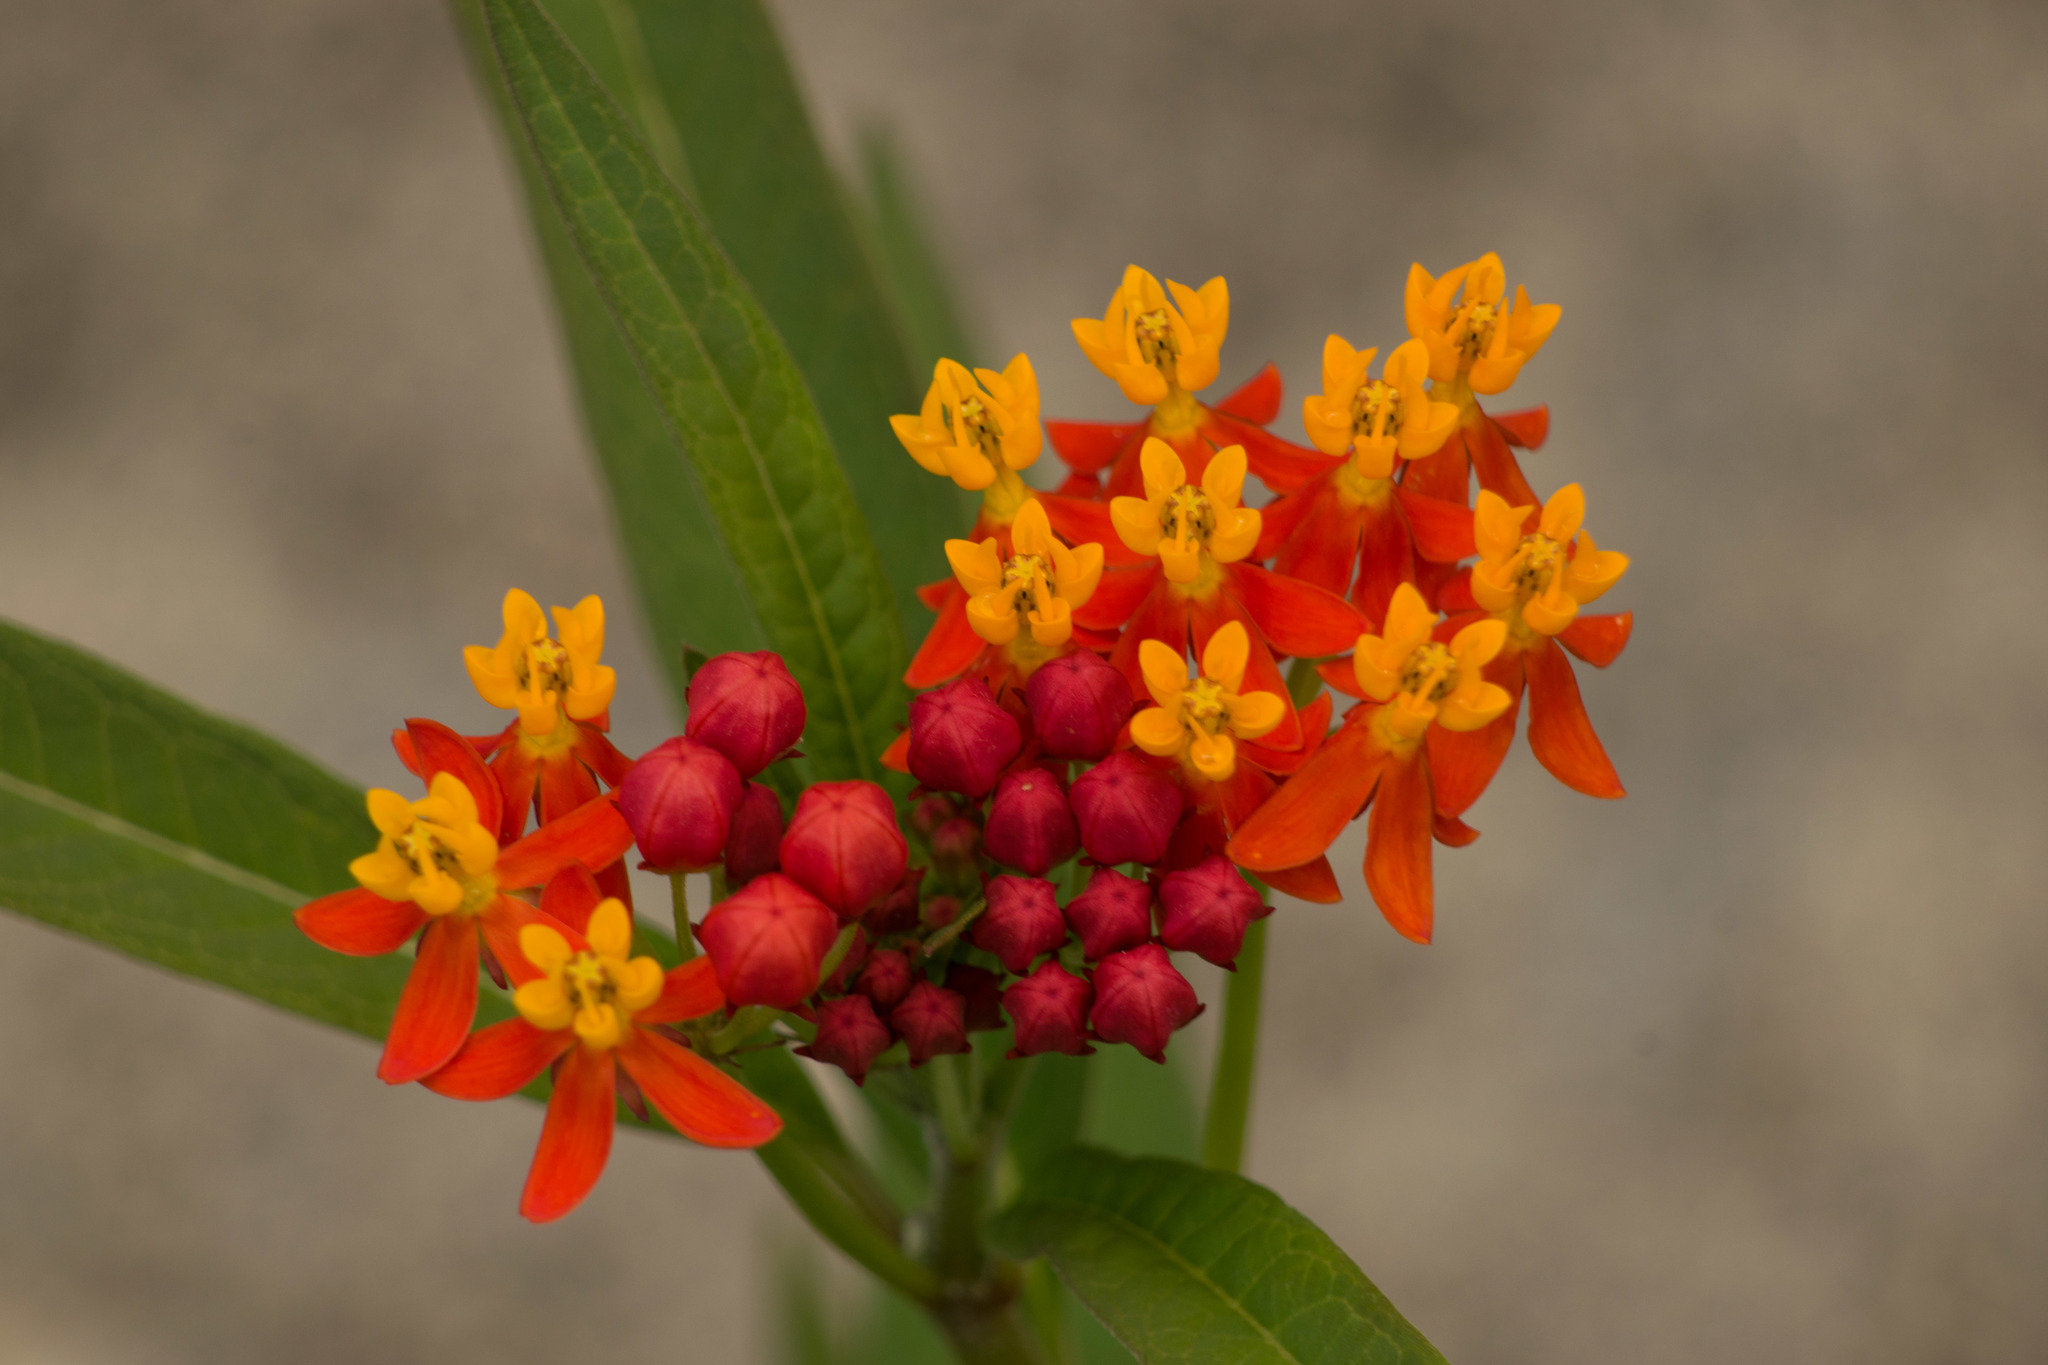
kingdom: Plantae
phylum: Tracheophyta
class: Magnoliopsida
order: Gentianales
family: Apocynaceae
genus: Asclepias
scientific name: Asclepias curassavica
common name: Bloodflower
